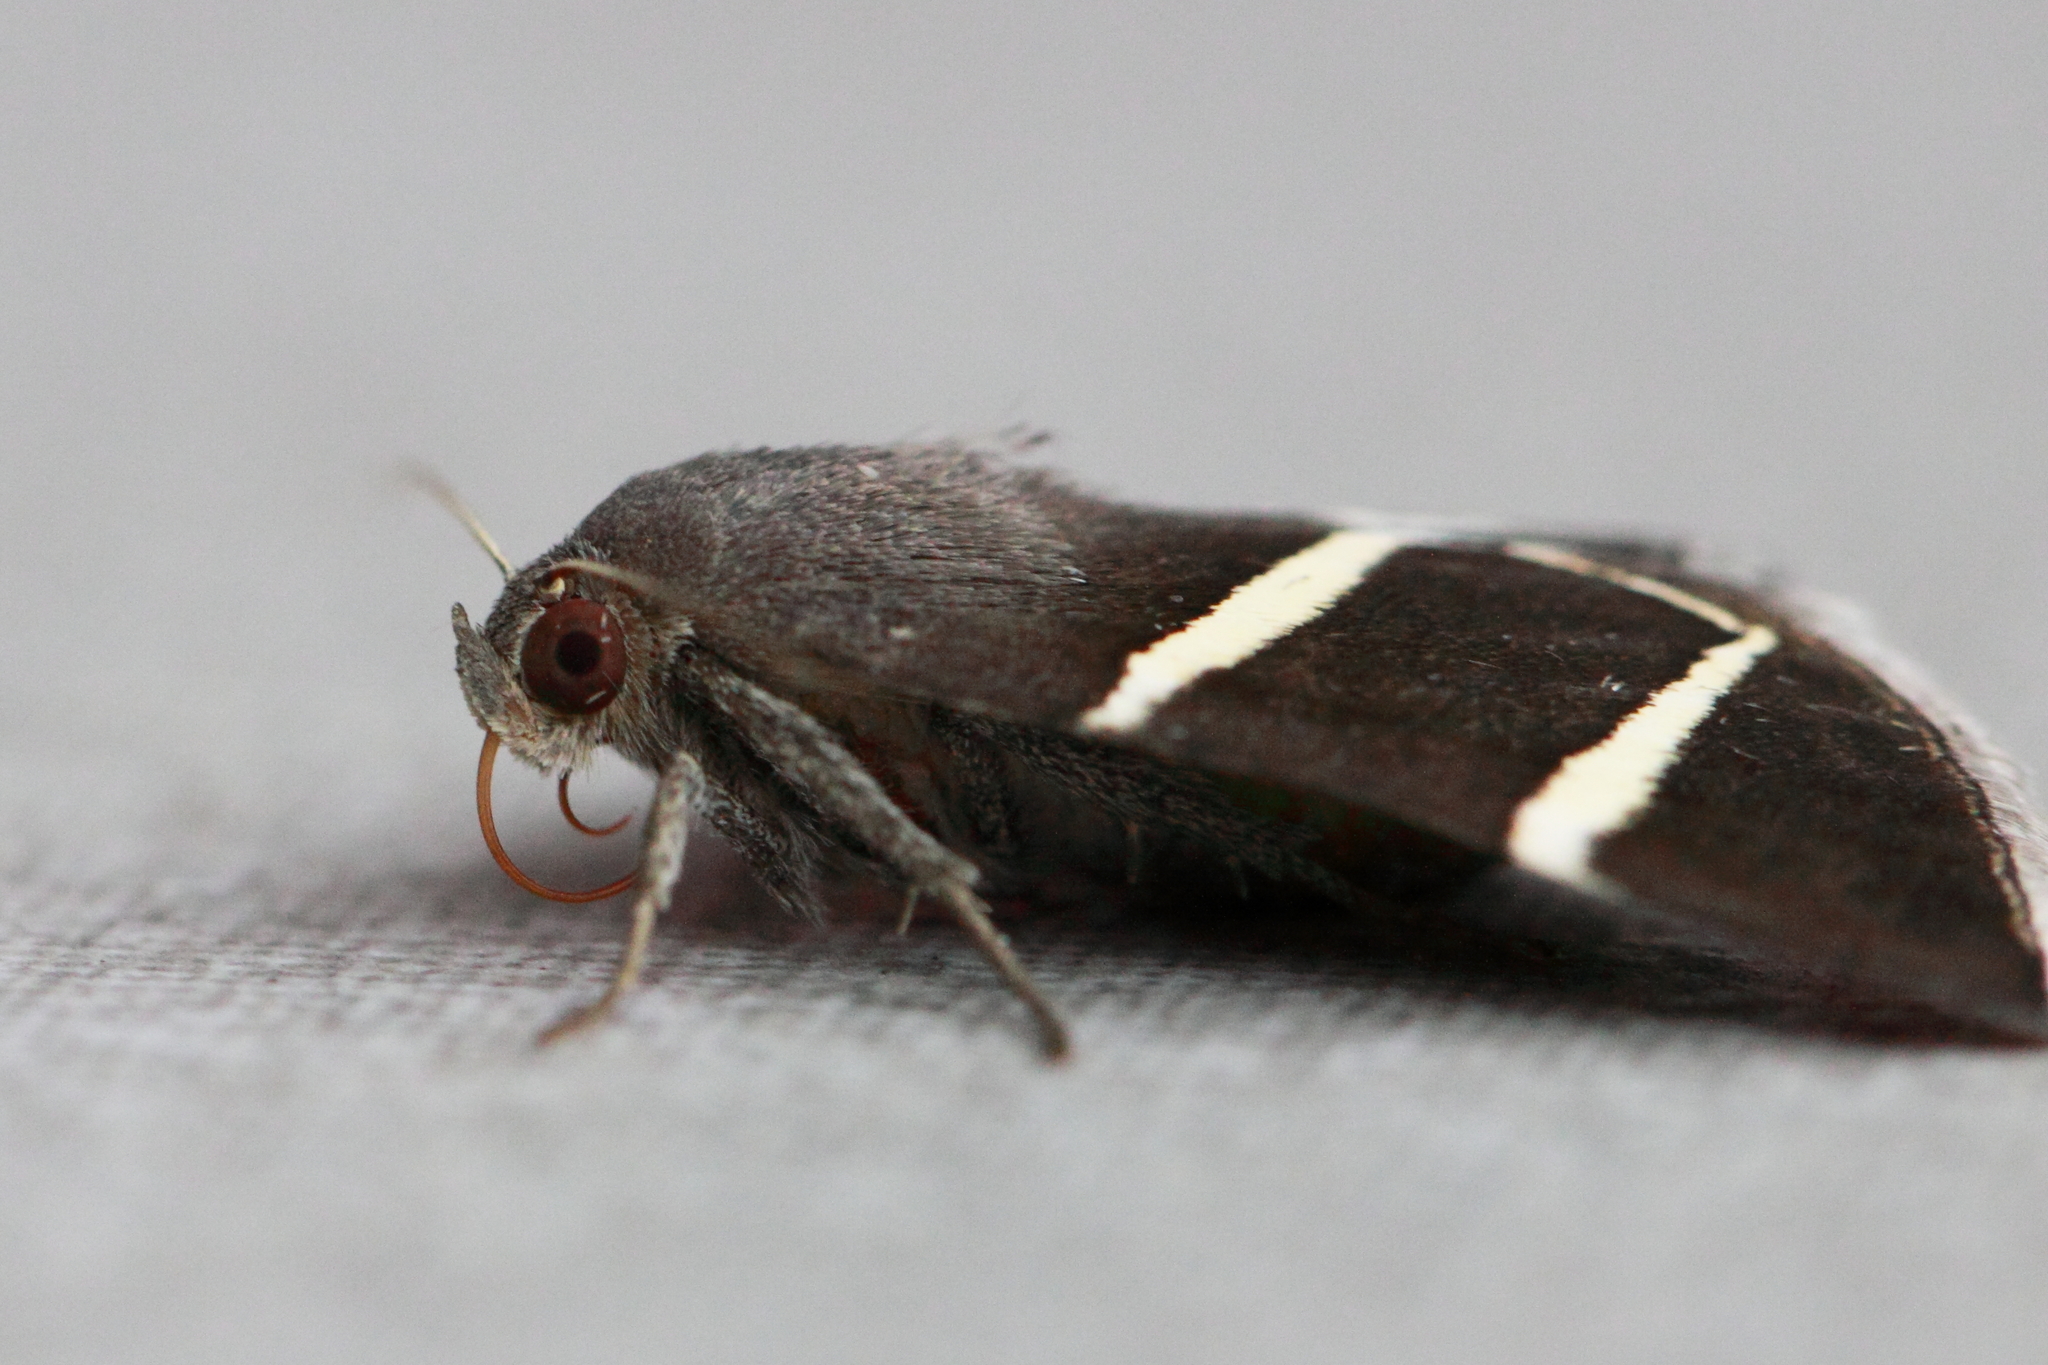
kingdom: Animalia
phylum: Arthropoda
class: Insecta
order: Lepidoptera
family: Erebidae
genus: Grammodes
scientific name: Grammodes justa
